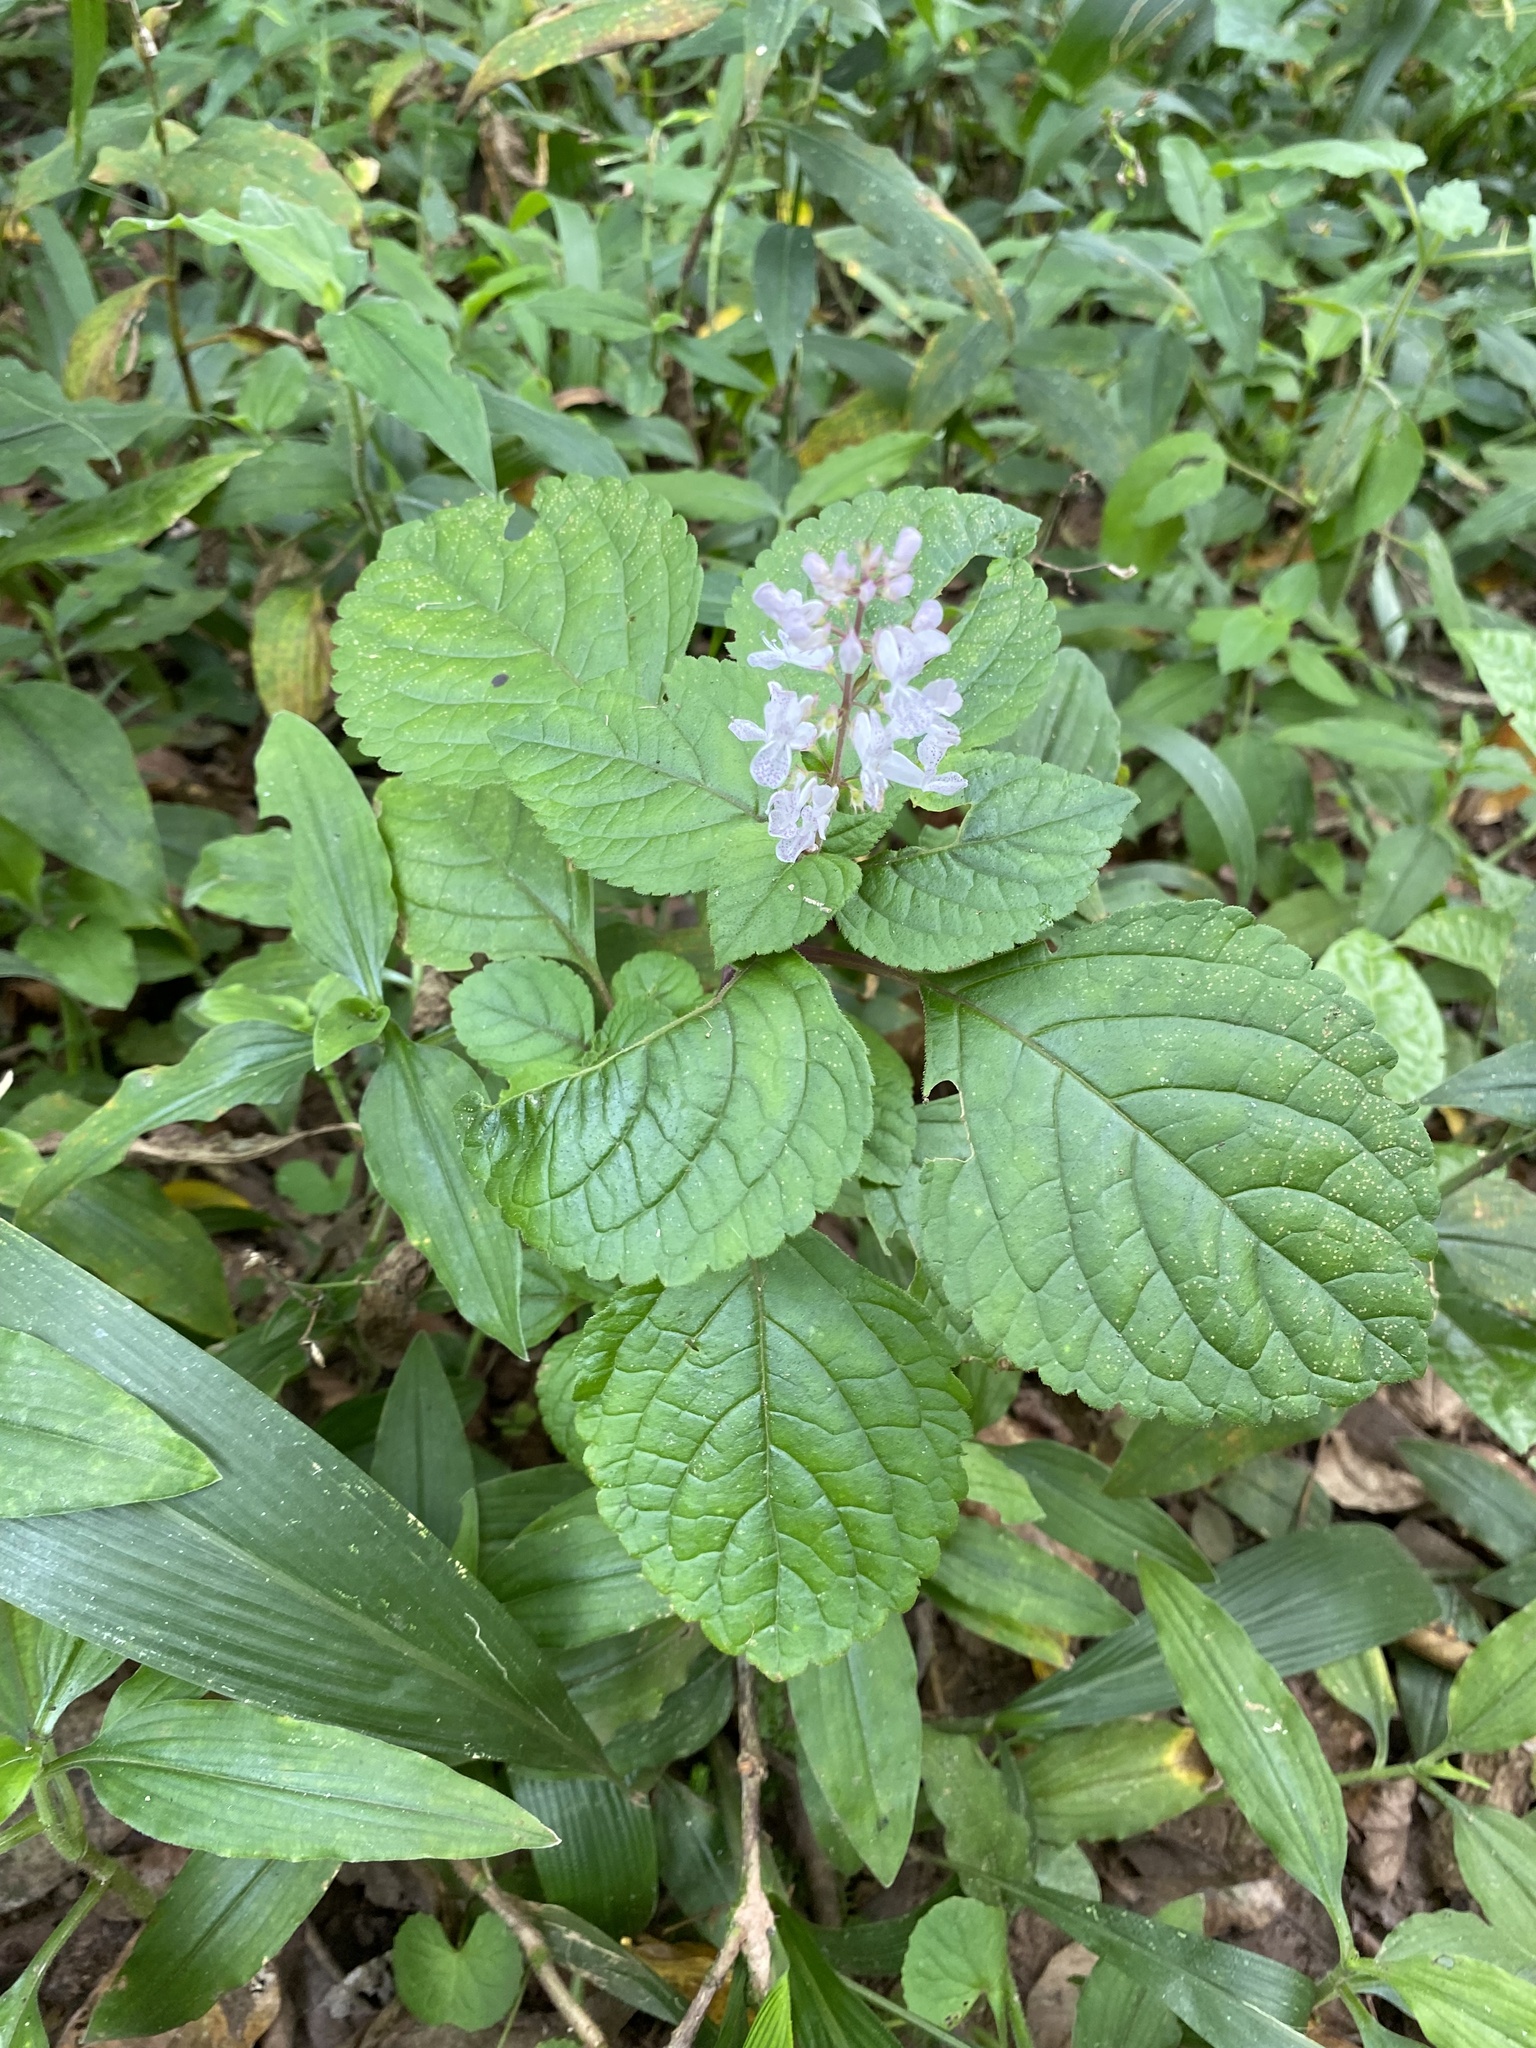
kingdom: Plantae
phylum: Tracheophyta
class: Magnoliopsida
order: Lamiales
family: Lamiaceae
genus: Plectranthus
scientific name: Plectranthus ciliatus
